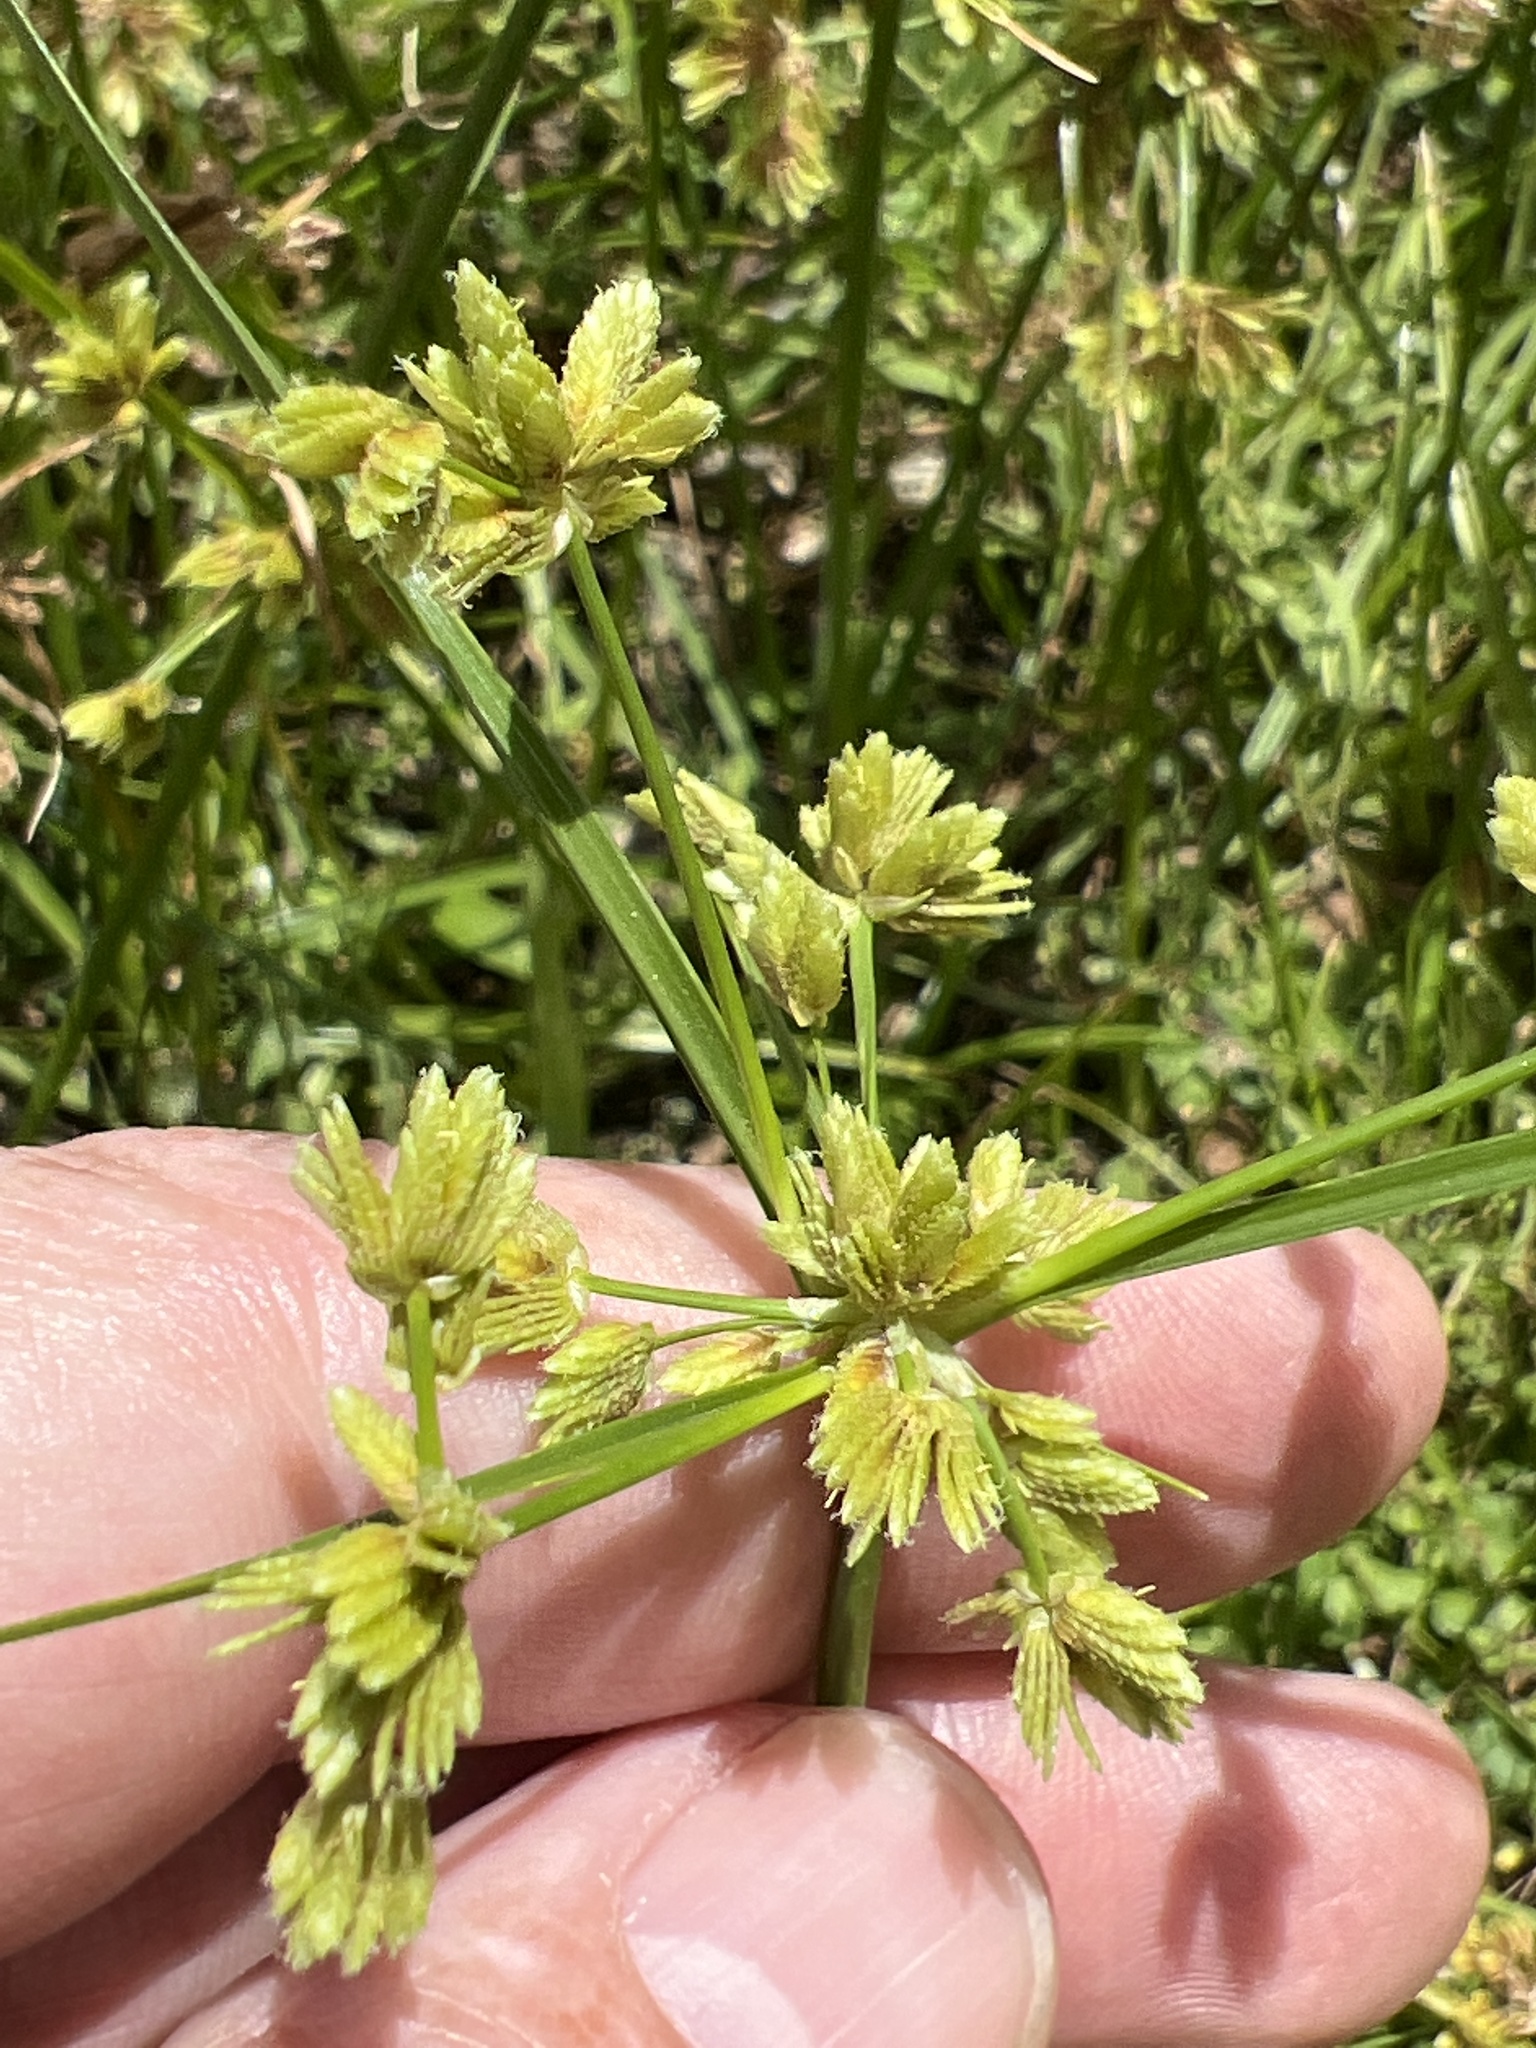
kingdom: Plantae
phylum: Tracheophyta
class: Liliopsida
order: Poales
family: Cyperaceae
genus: Cyperus
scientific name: Cyperus surinamensis
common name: Tropical flat sedge
